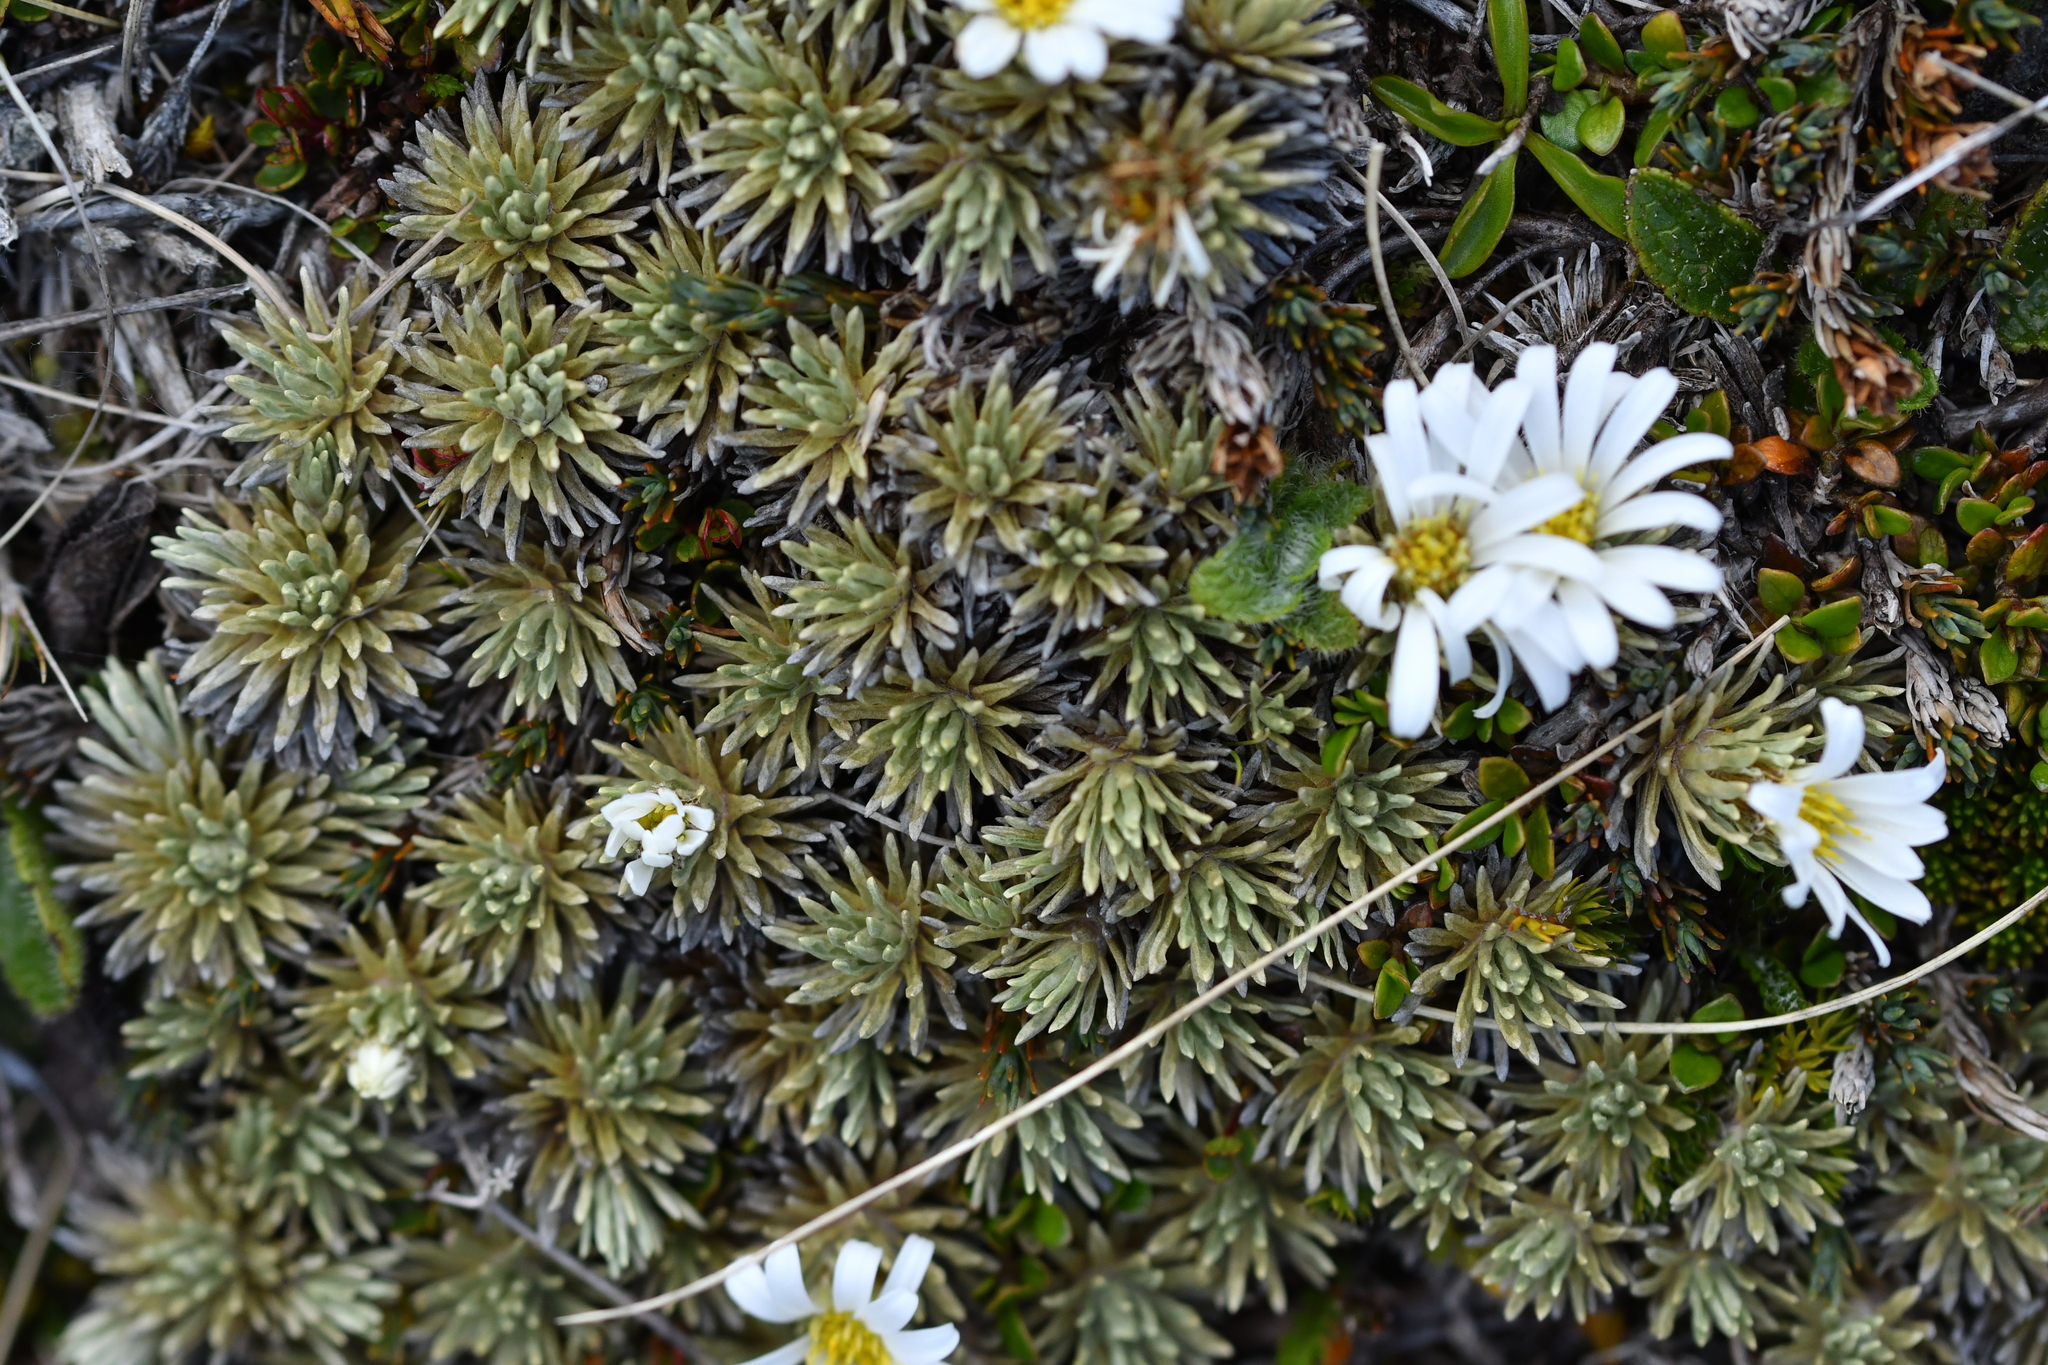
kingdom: Plantae
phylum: Tracheophyta
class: Magnoliopsida
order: Asterales
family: Asteraceae
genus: Celmisia
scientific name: Celmisia sessiliflora
